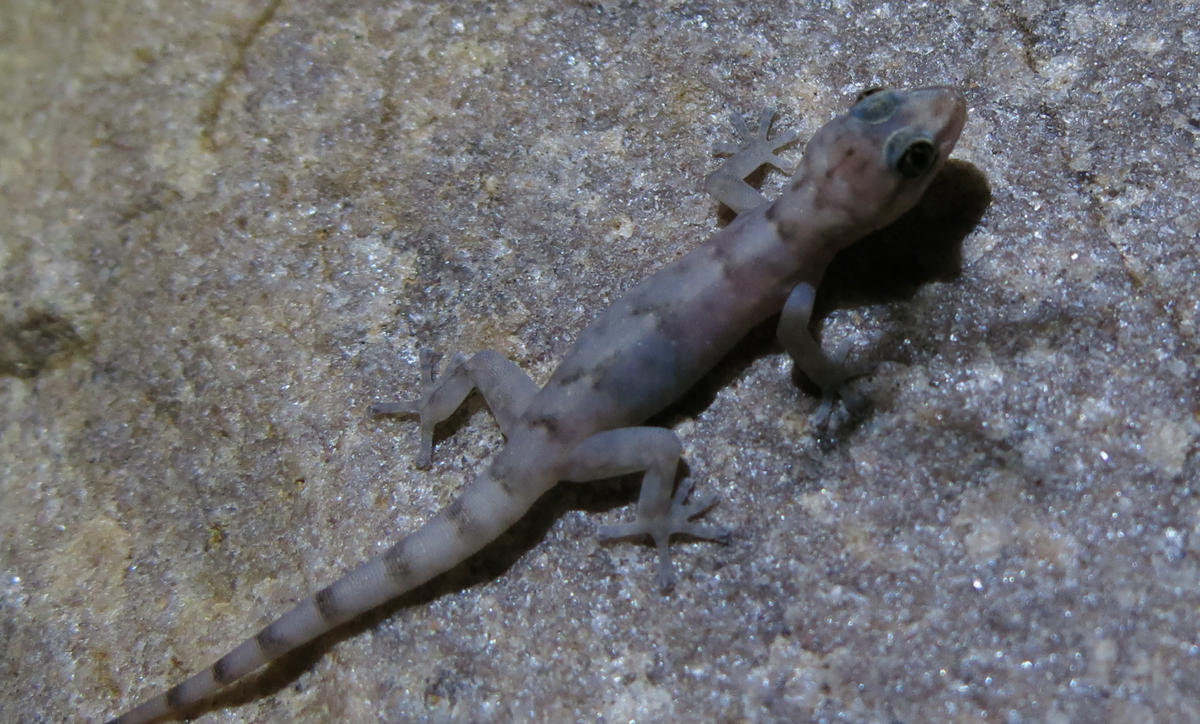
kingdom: Animalia
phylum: Chordata
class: Squamata
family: Gekkonidae
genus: Afroedura
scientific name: Afroedura pienaari
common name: Pienaar’s rock gecko
